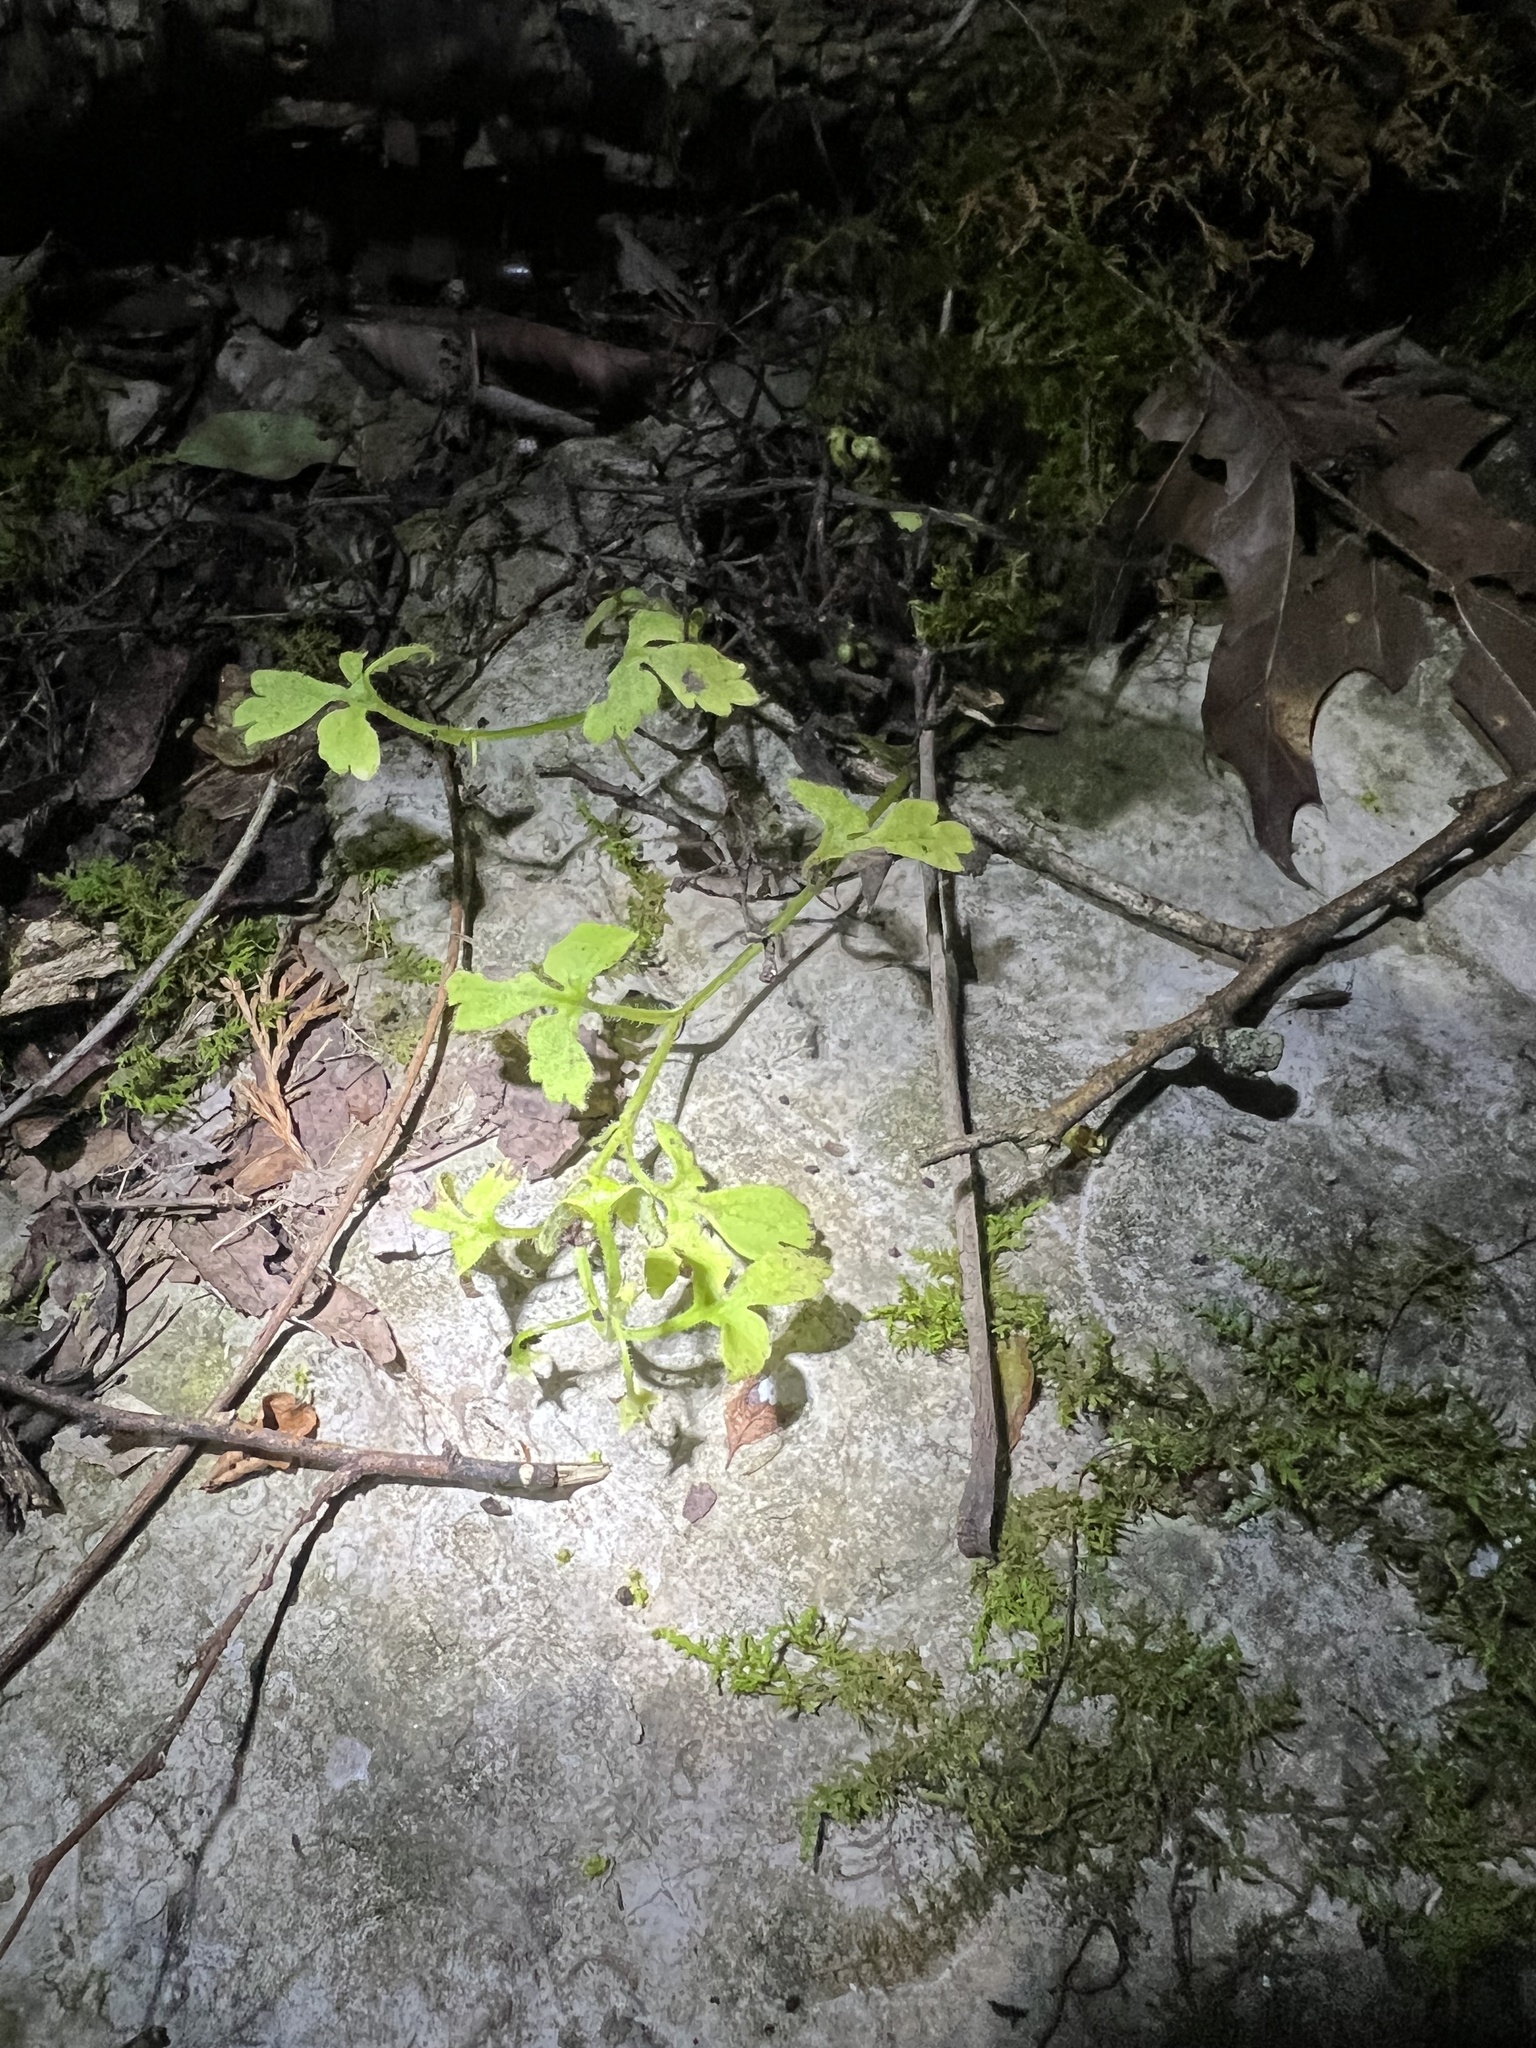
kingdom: Plantae
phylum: Tracheophyta
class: Magnoliopsida
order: Boraginales
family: Hydrophyllaceae
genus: Nemophila
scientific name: Nemophila aphylla
